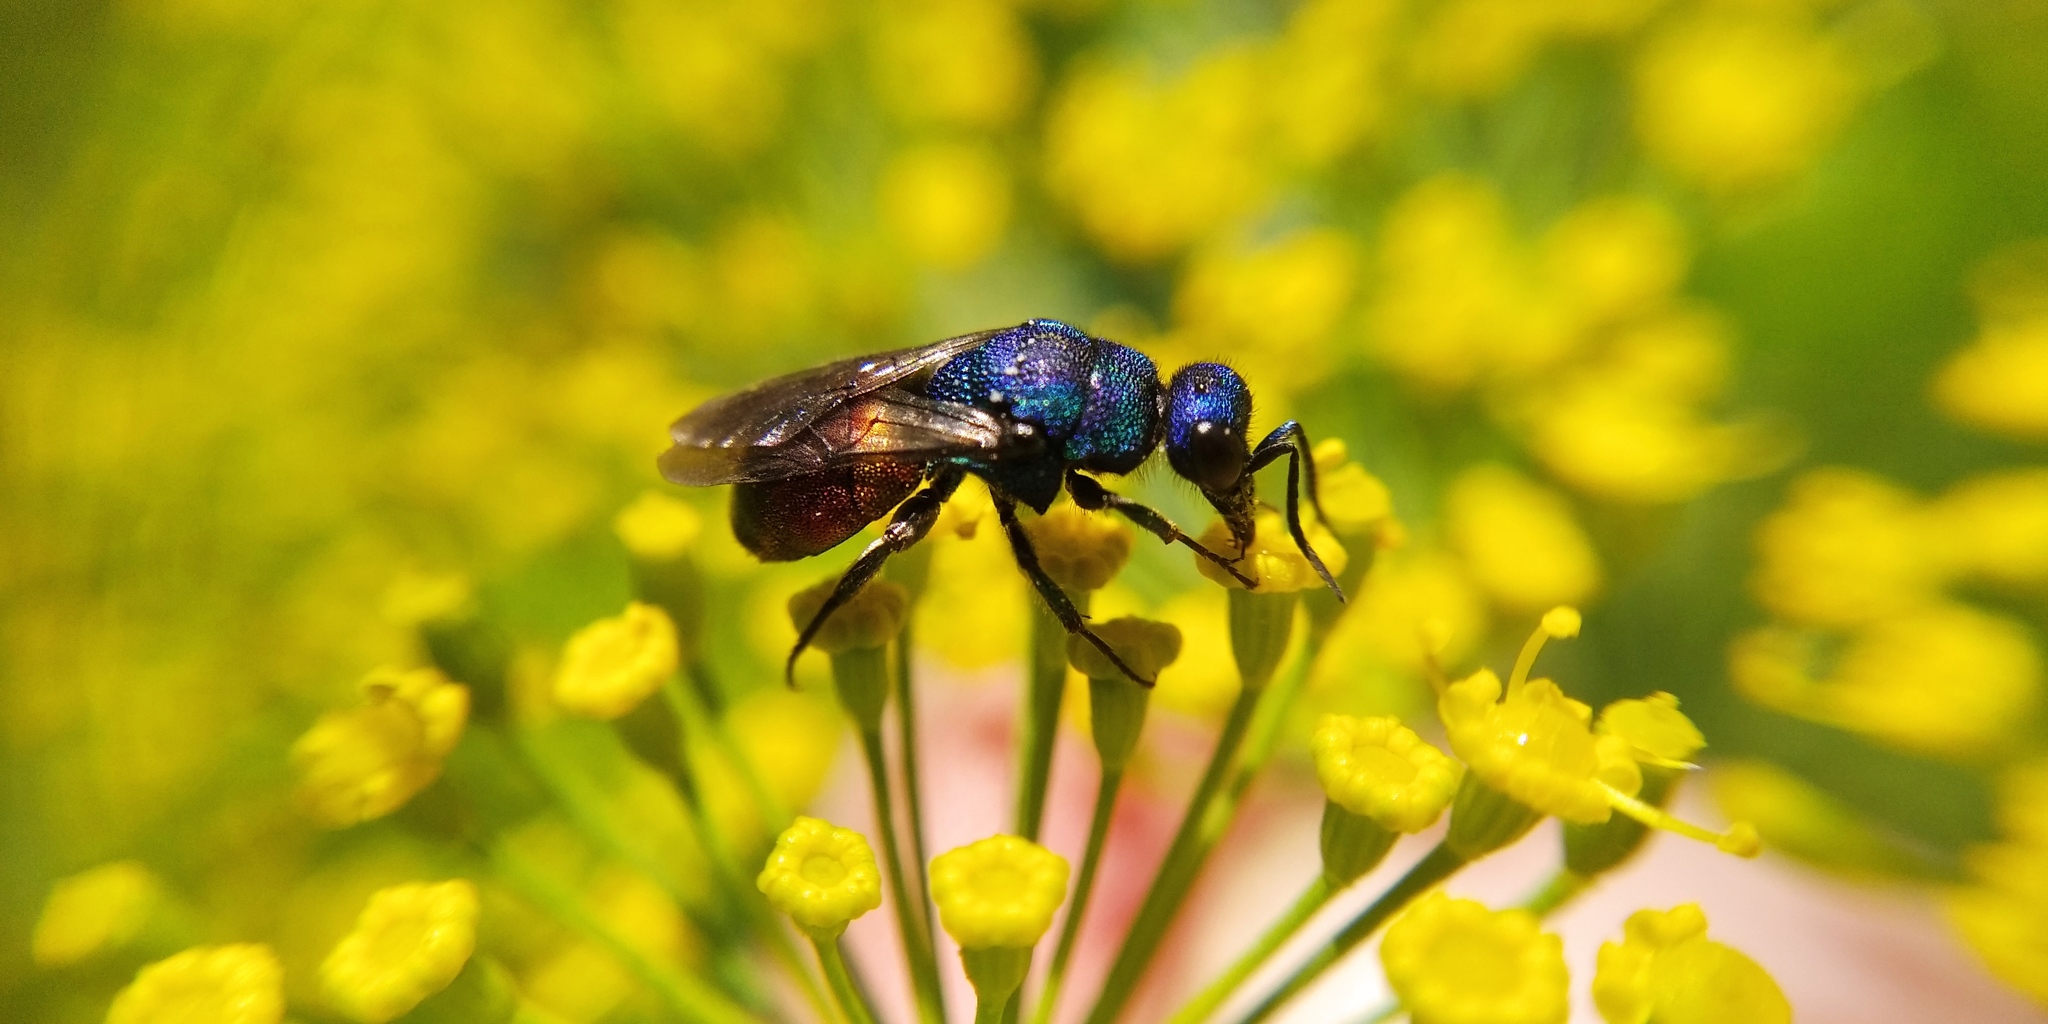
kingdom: Animalia
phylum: Arthropoda
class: Insecta
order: Hymenoptera
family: Chrysididae
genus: Holopyga
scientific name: Holopyga fastuosa
